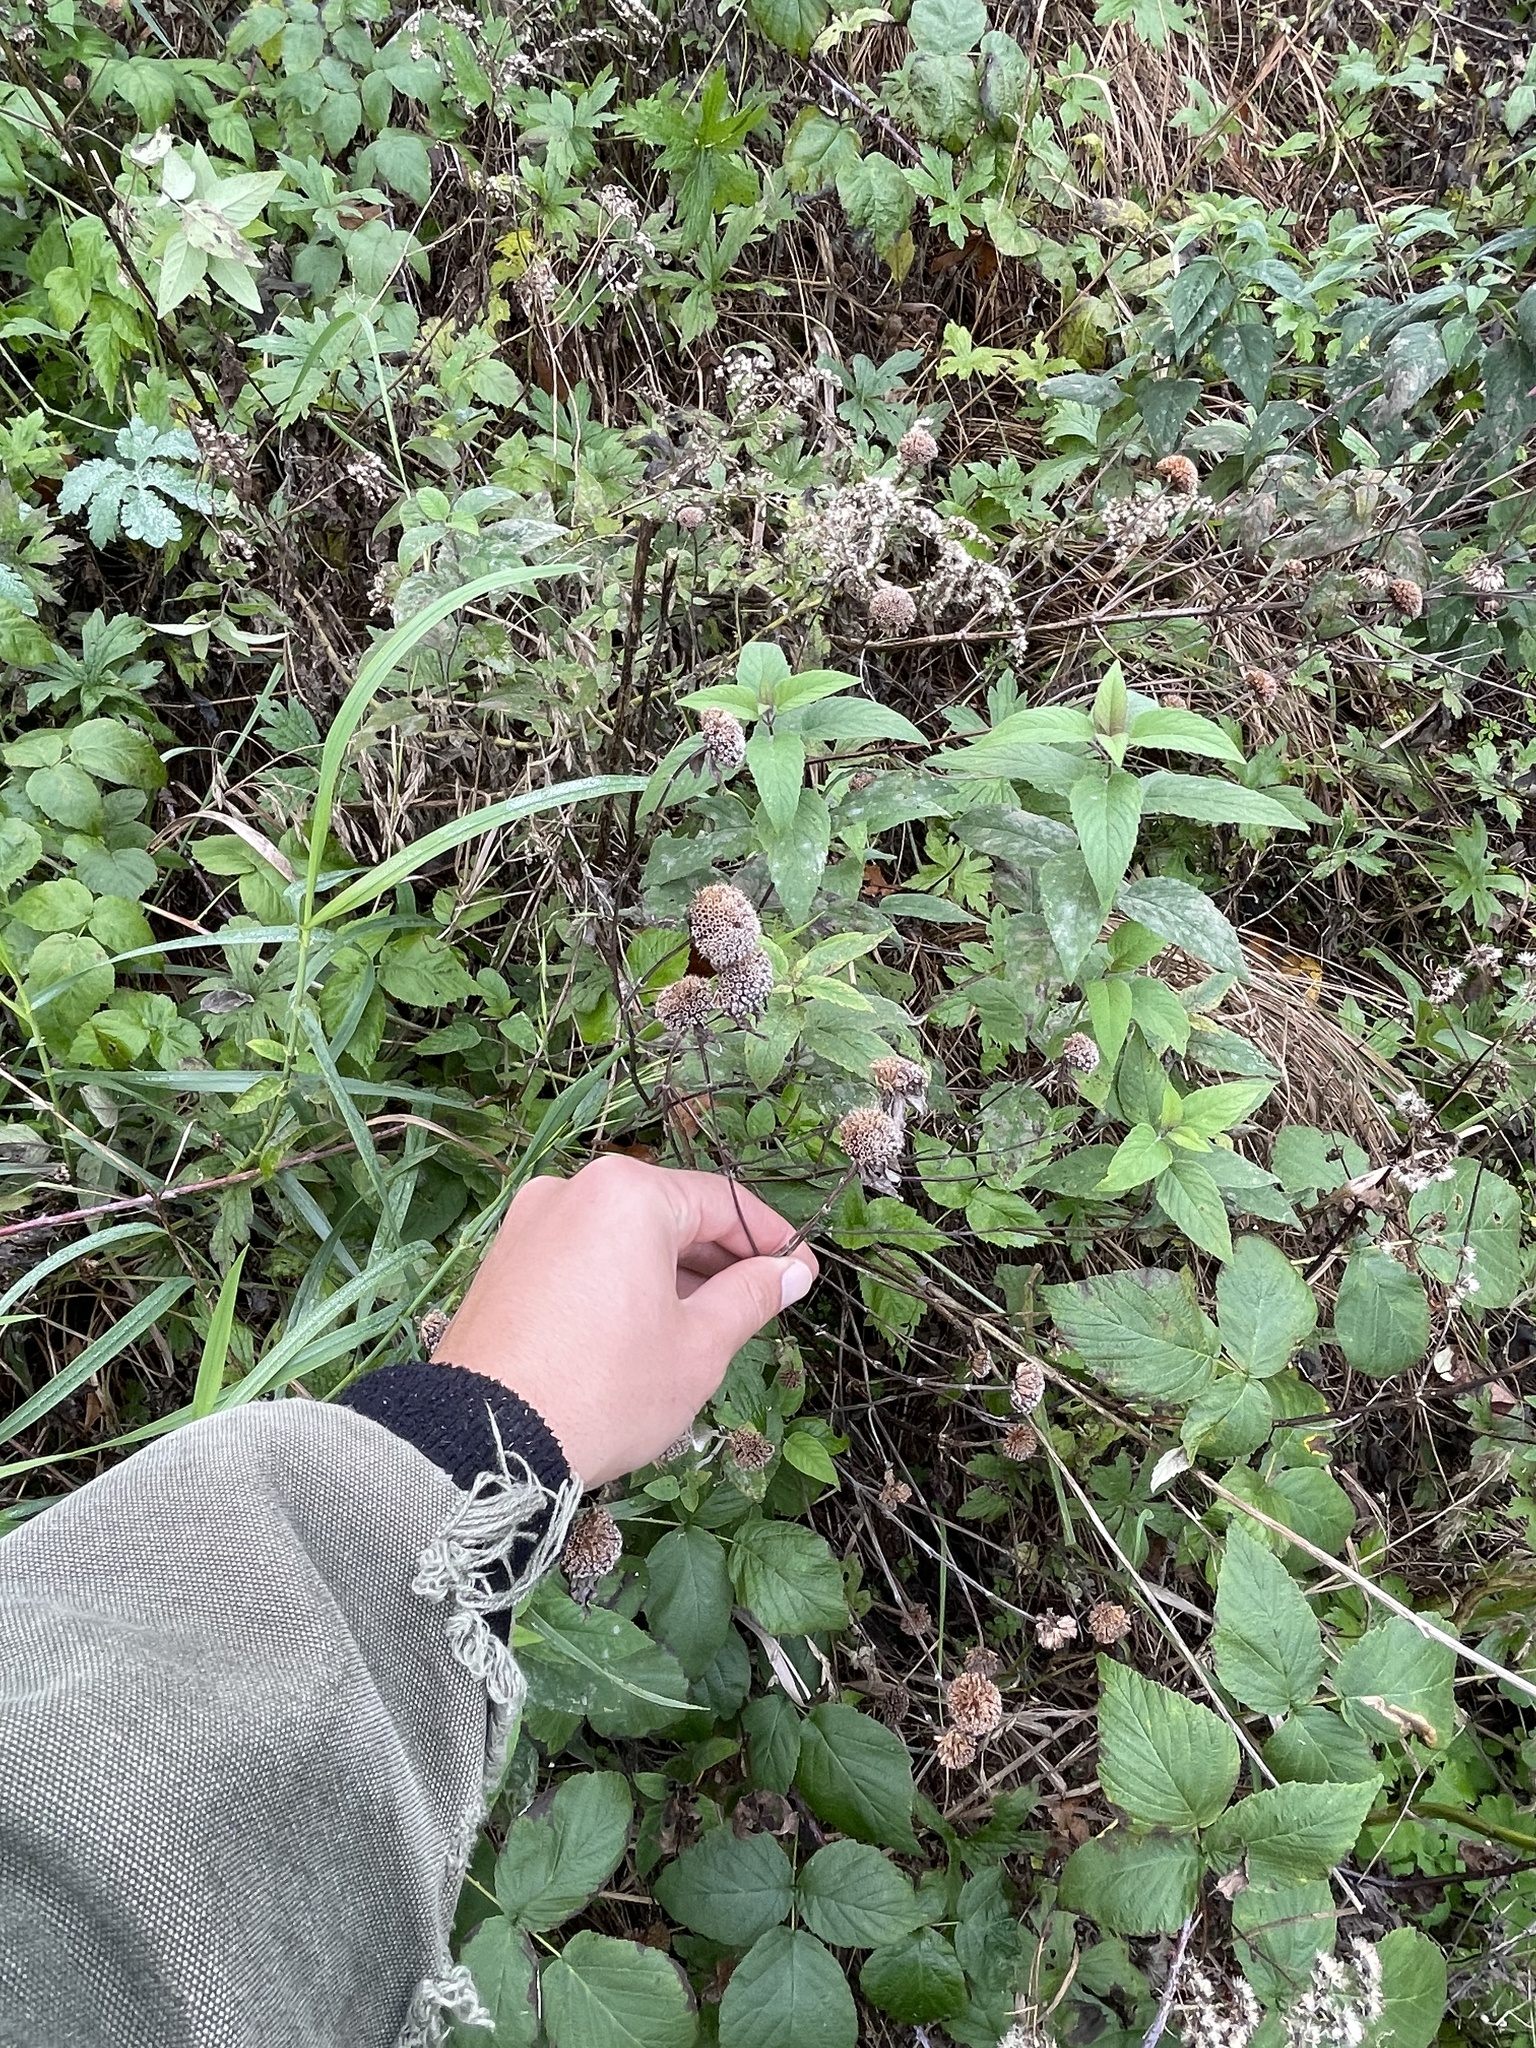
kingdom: Plantae
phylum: Tracheophyta
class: Magnoliopsida
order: Lamiales
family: Lamiaceae
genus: Monarda
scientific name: Monarda fistulosa
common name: Purple beebalm
